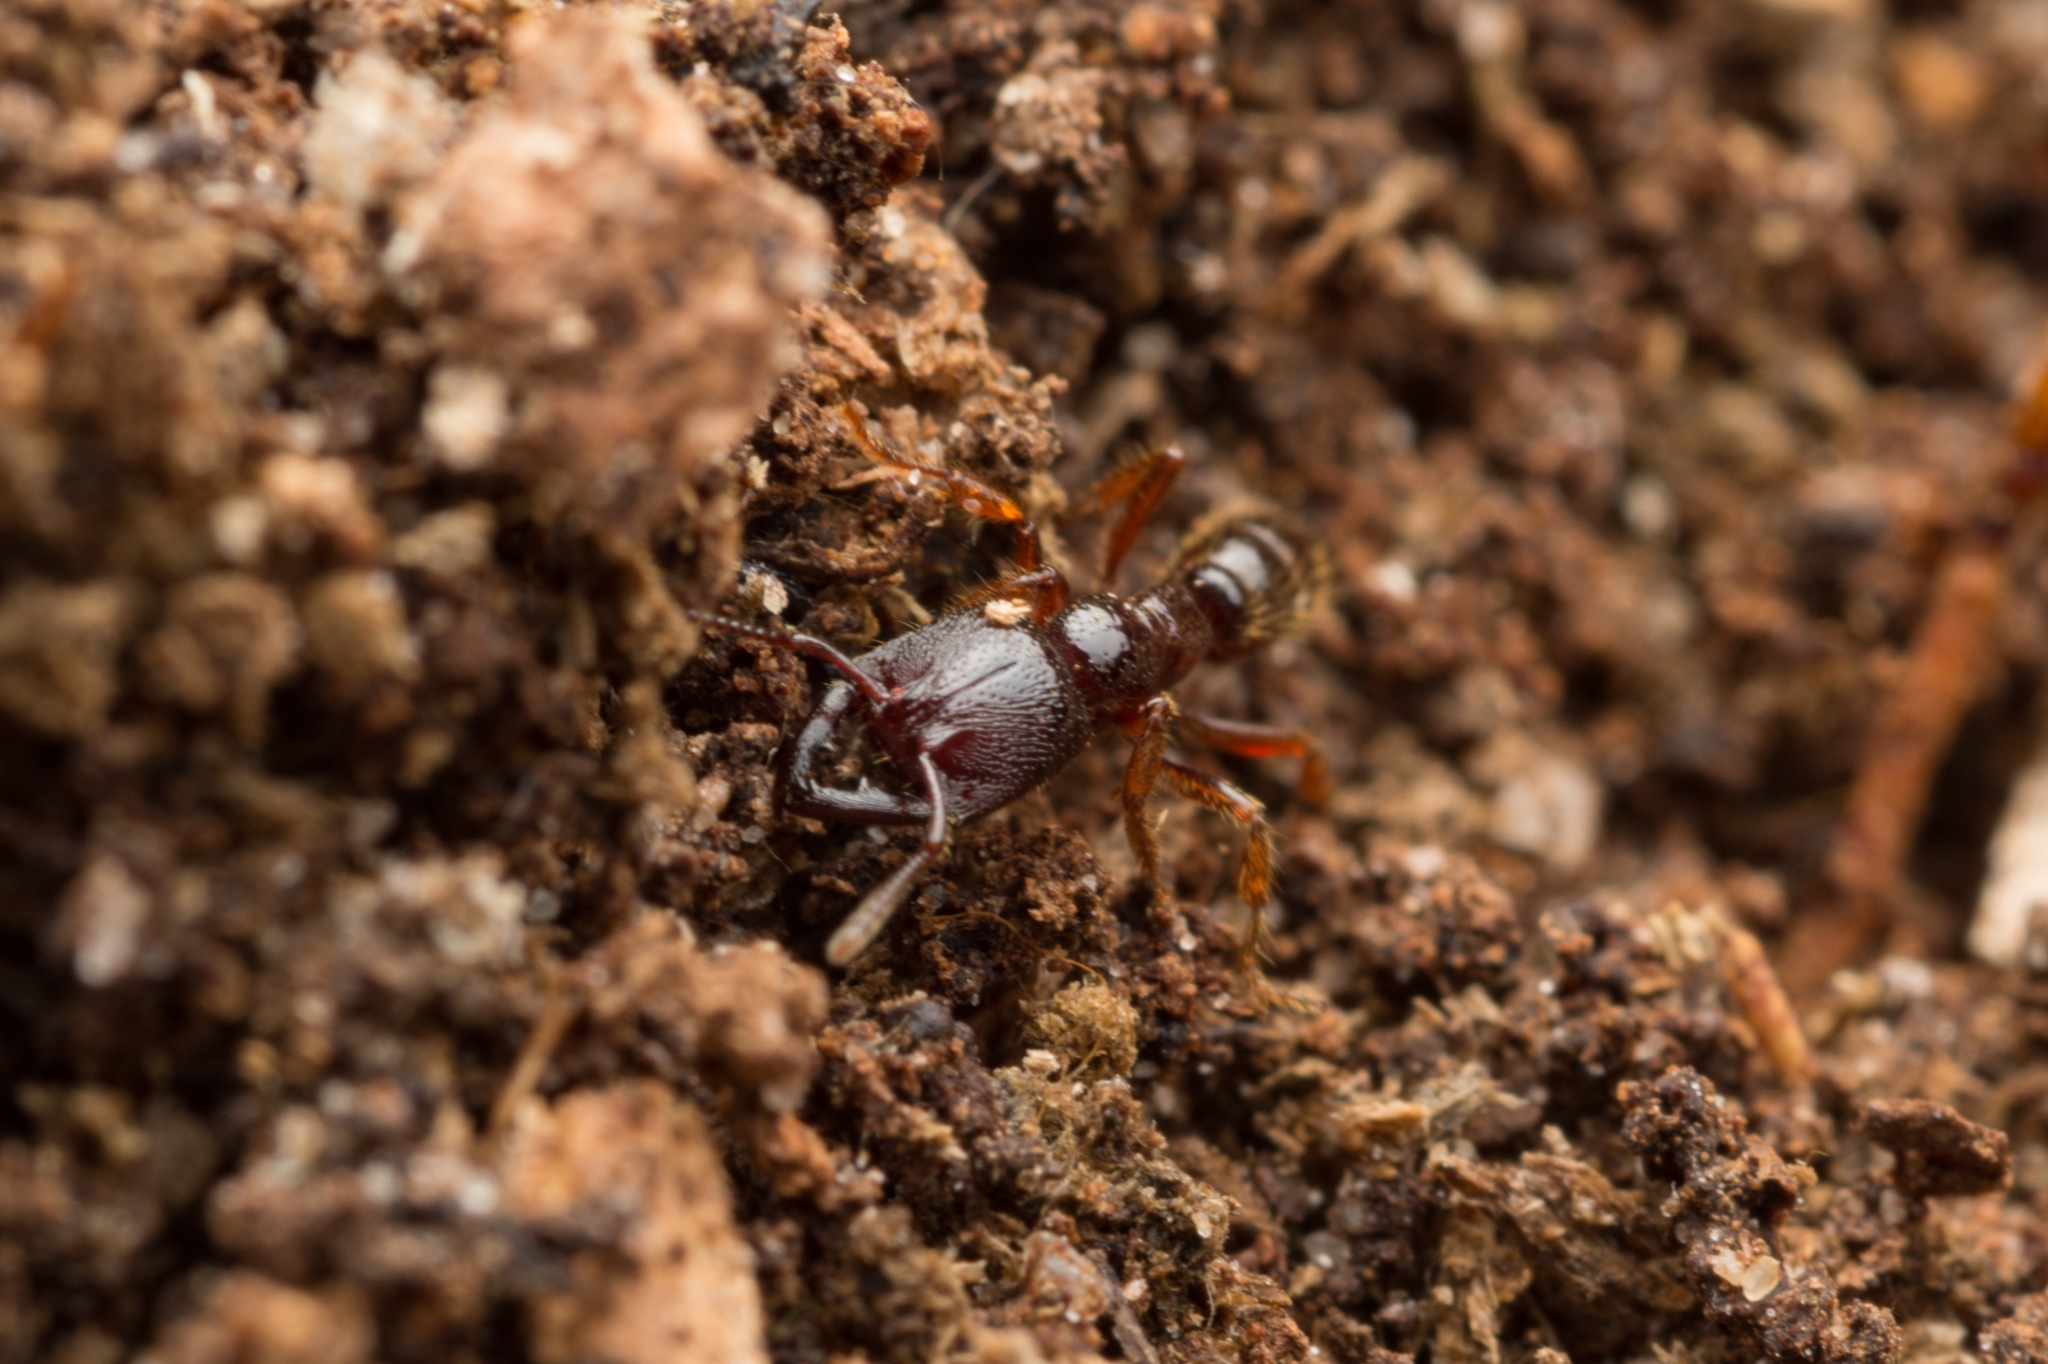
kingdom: Animalia
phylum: Arthropoda
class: Insecta
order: Hymenoptera
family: Formicidae
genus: Amblyopone
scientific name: Amblyopone australis
